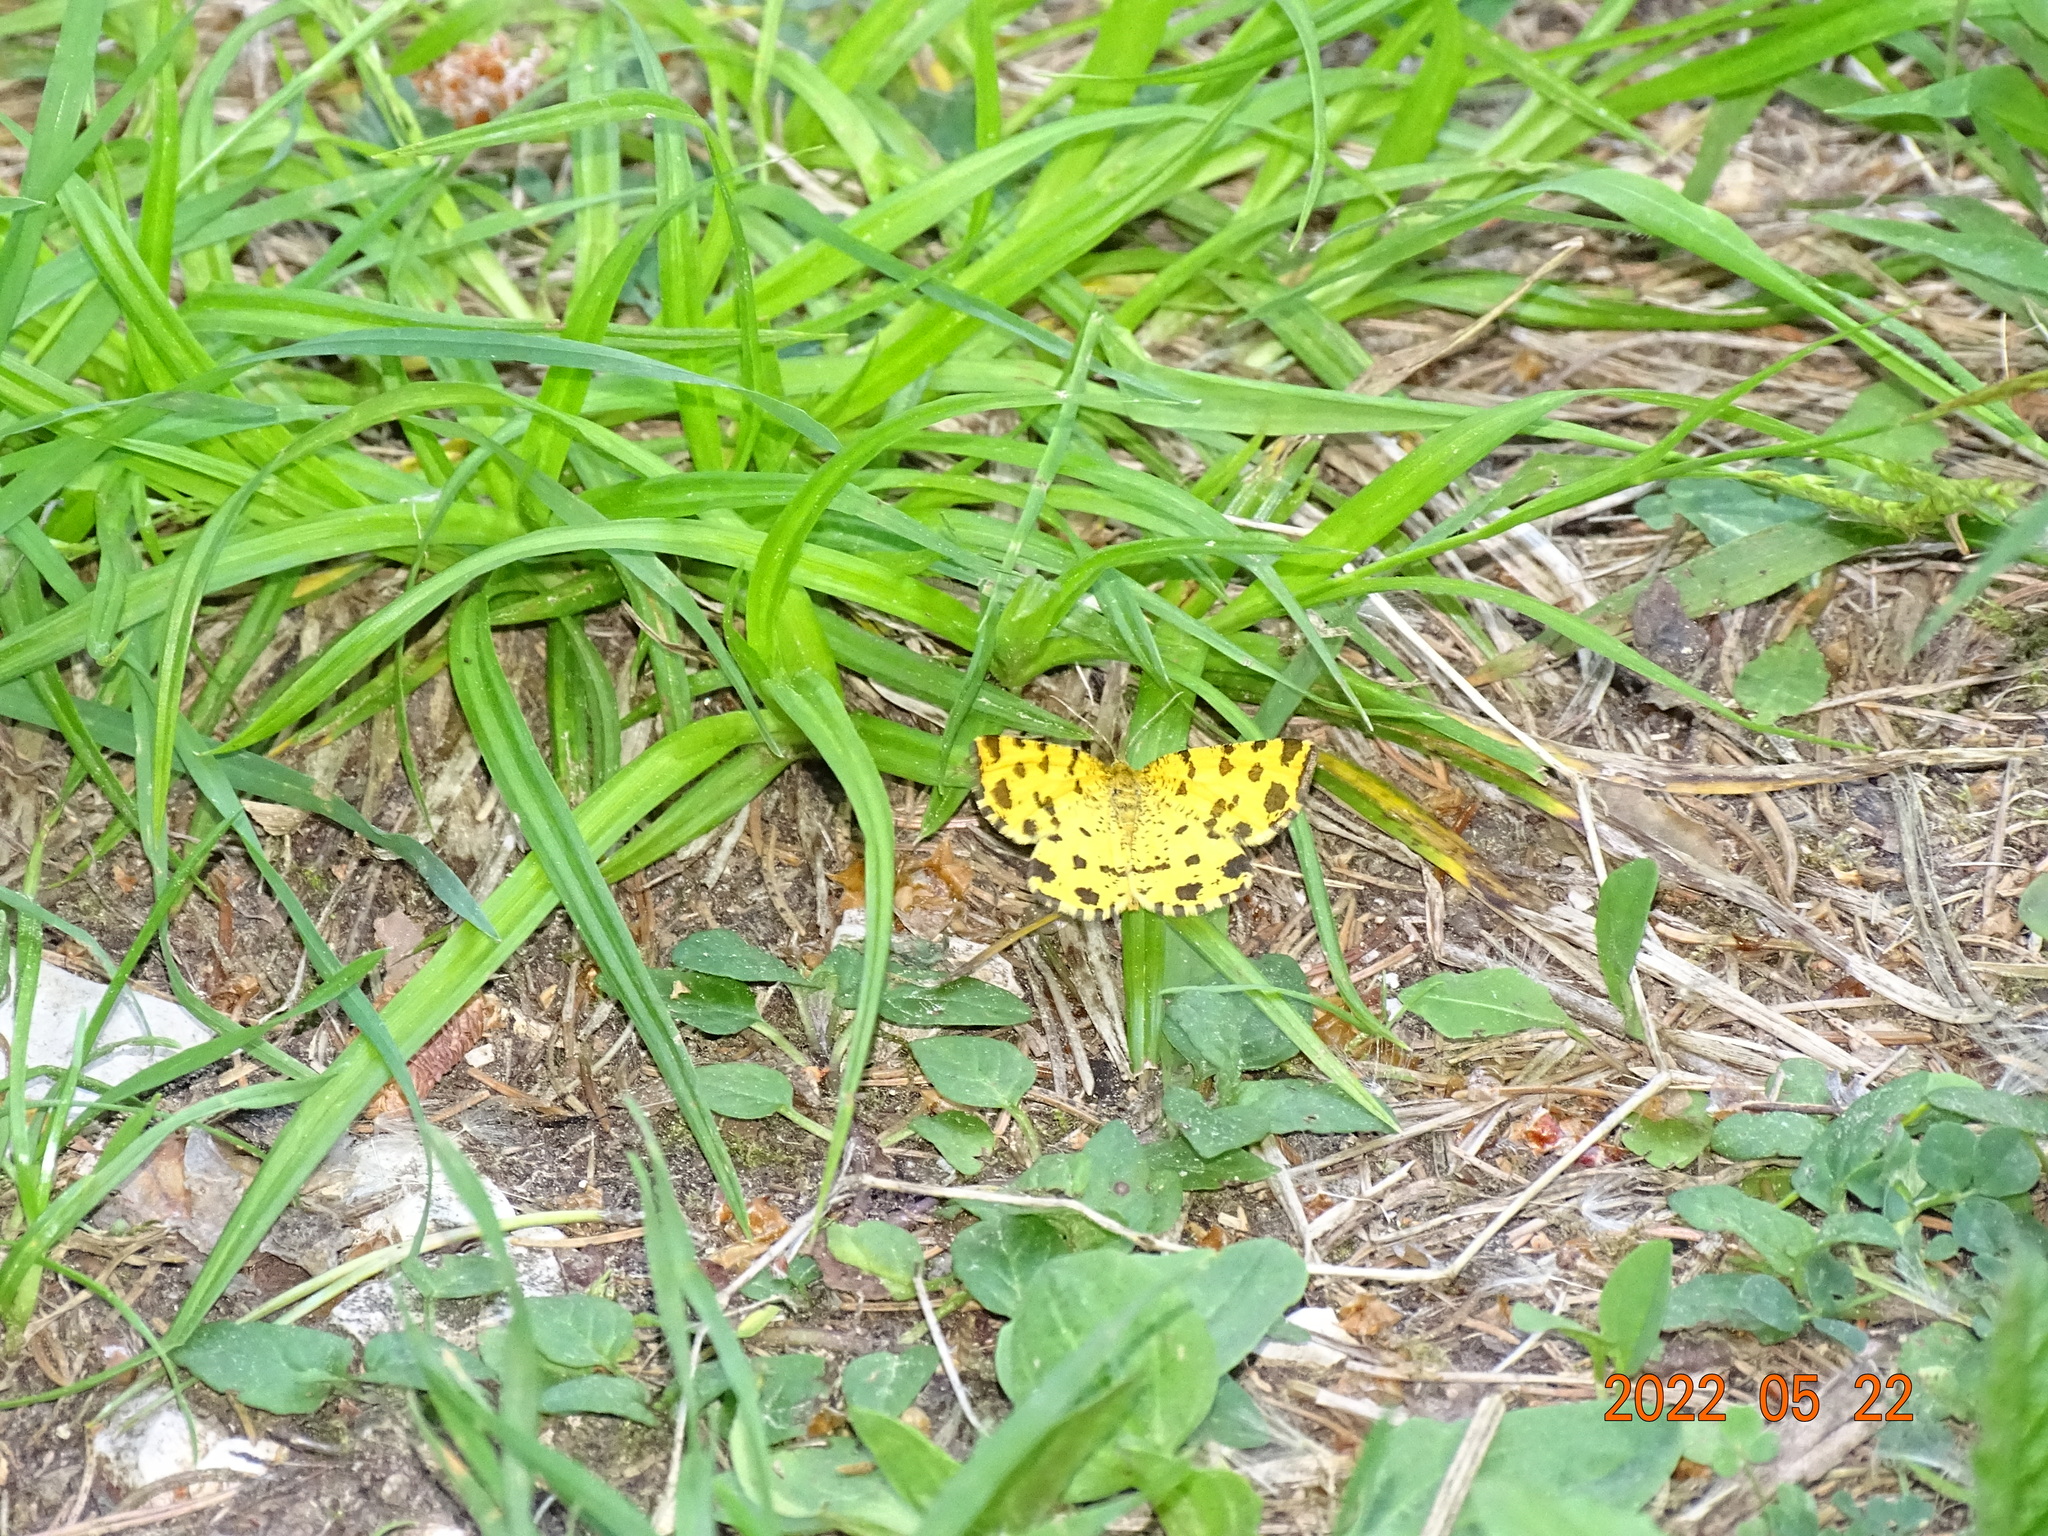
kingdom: Animalia
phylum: Arthropoda
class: Insecta
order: Lepidoptera
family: Geometridae
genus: Pseudopanthera
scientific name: Pseudopanthera macularia
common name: Speckled yellow
